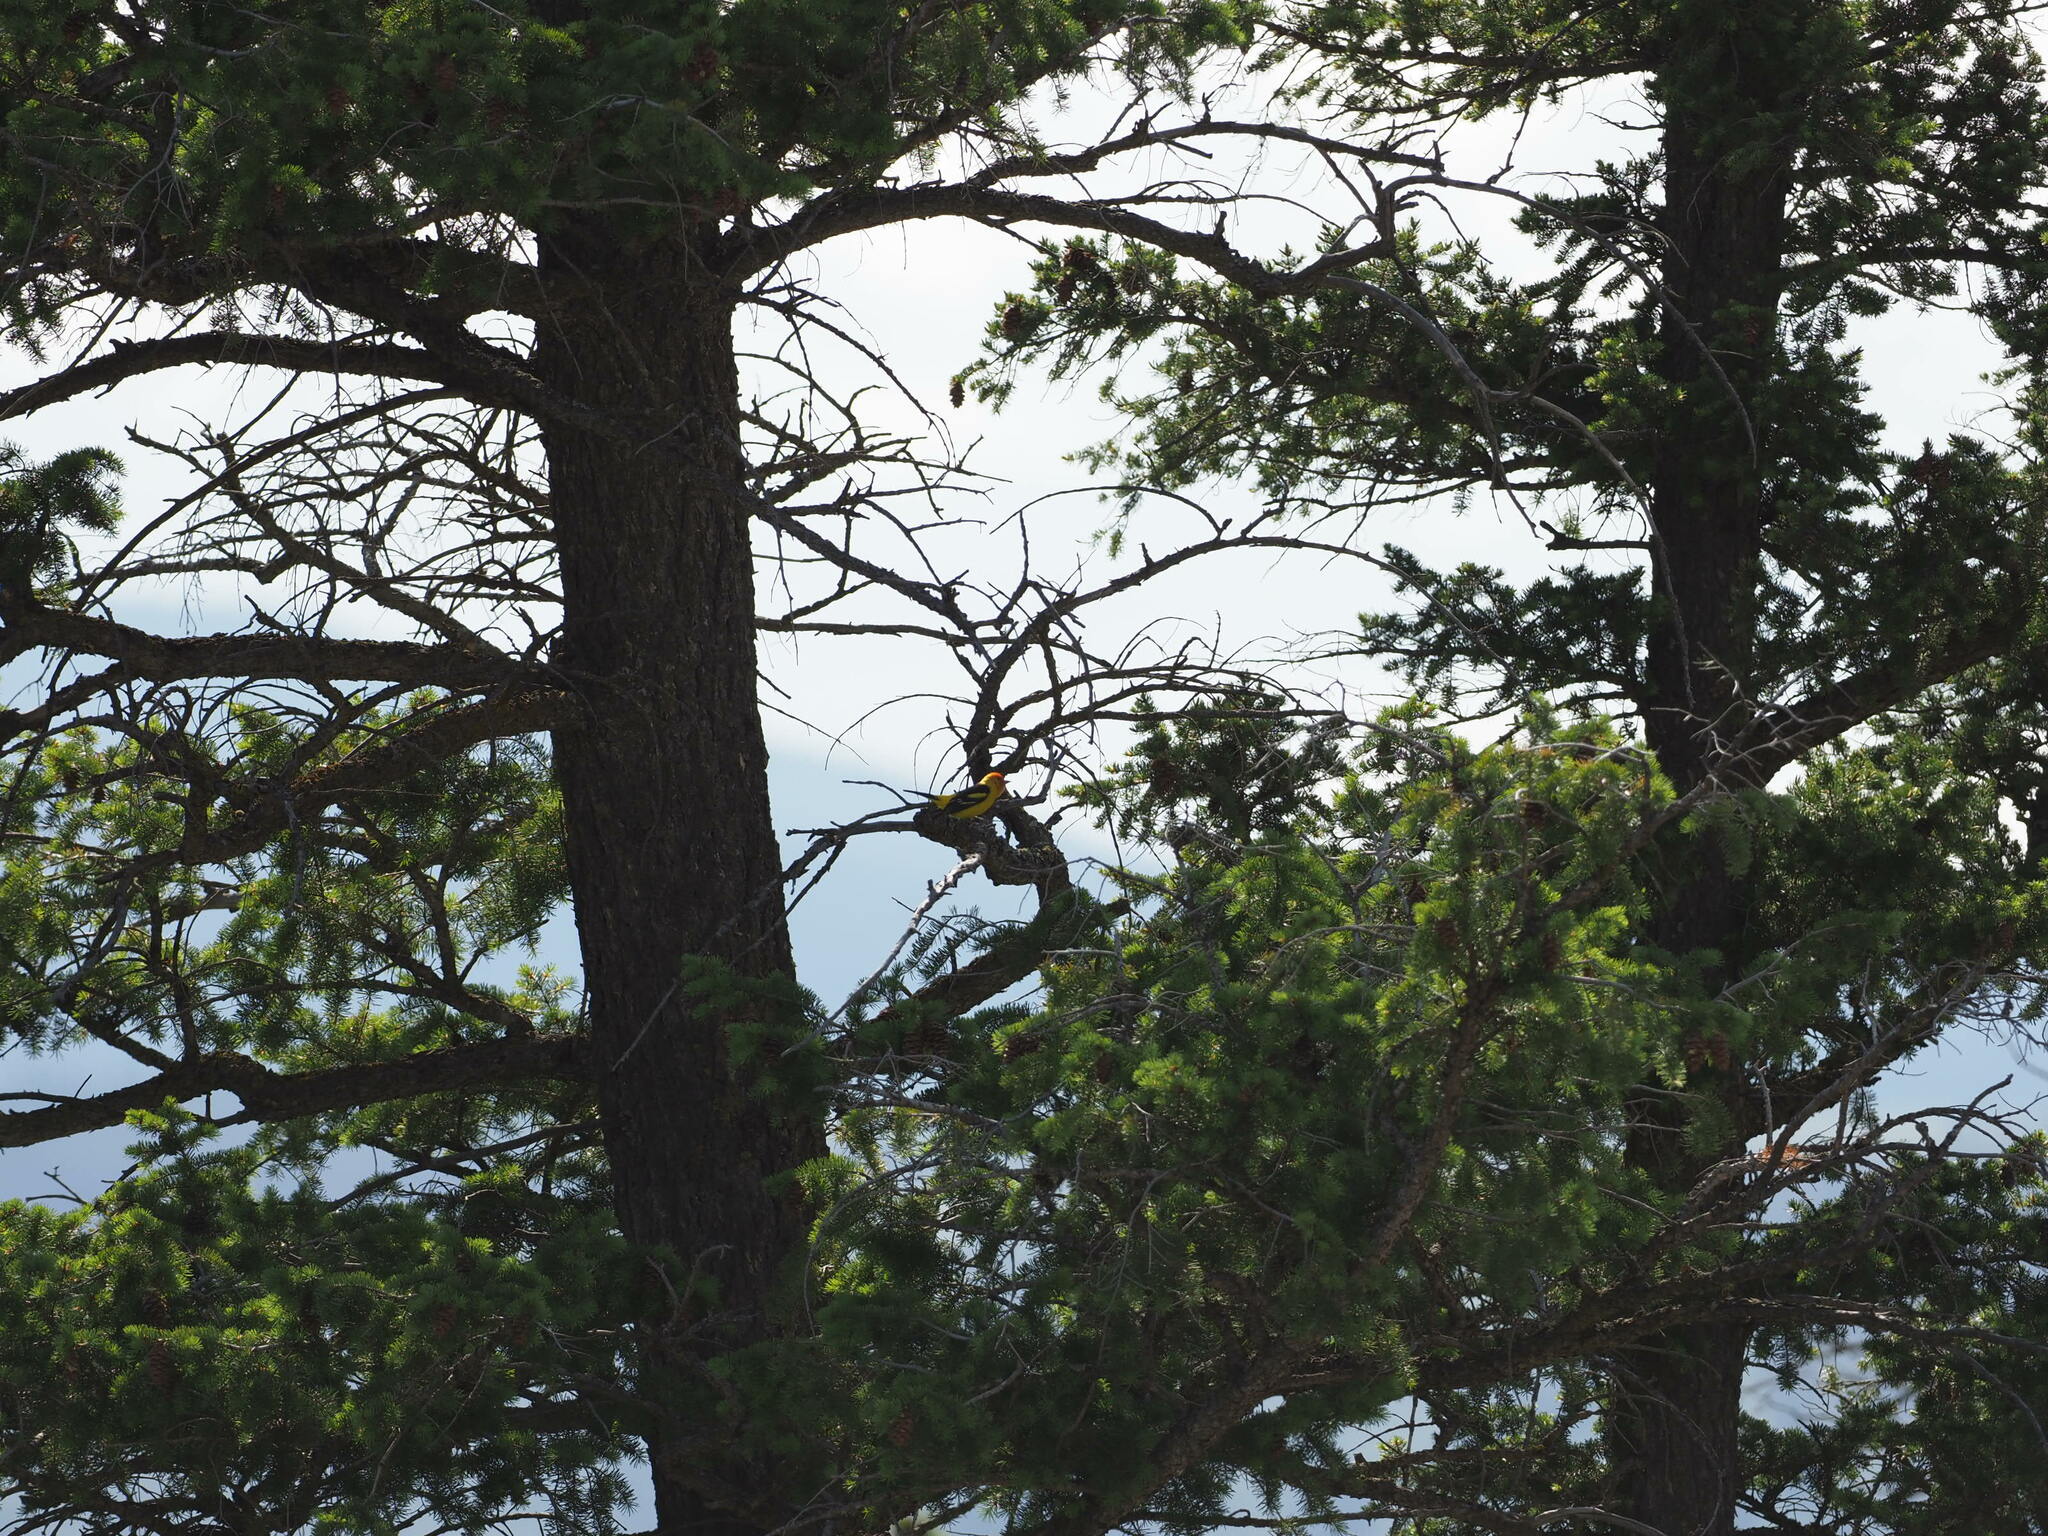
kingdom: Animalia
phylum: Chordata
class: Aves
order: Passeriformes
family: Cardinalidae
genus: Piranga
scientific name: Piranga ludoviciana
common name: Western tanager
